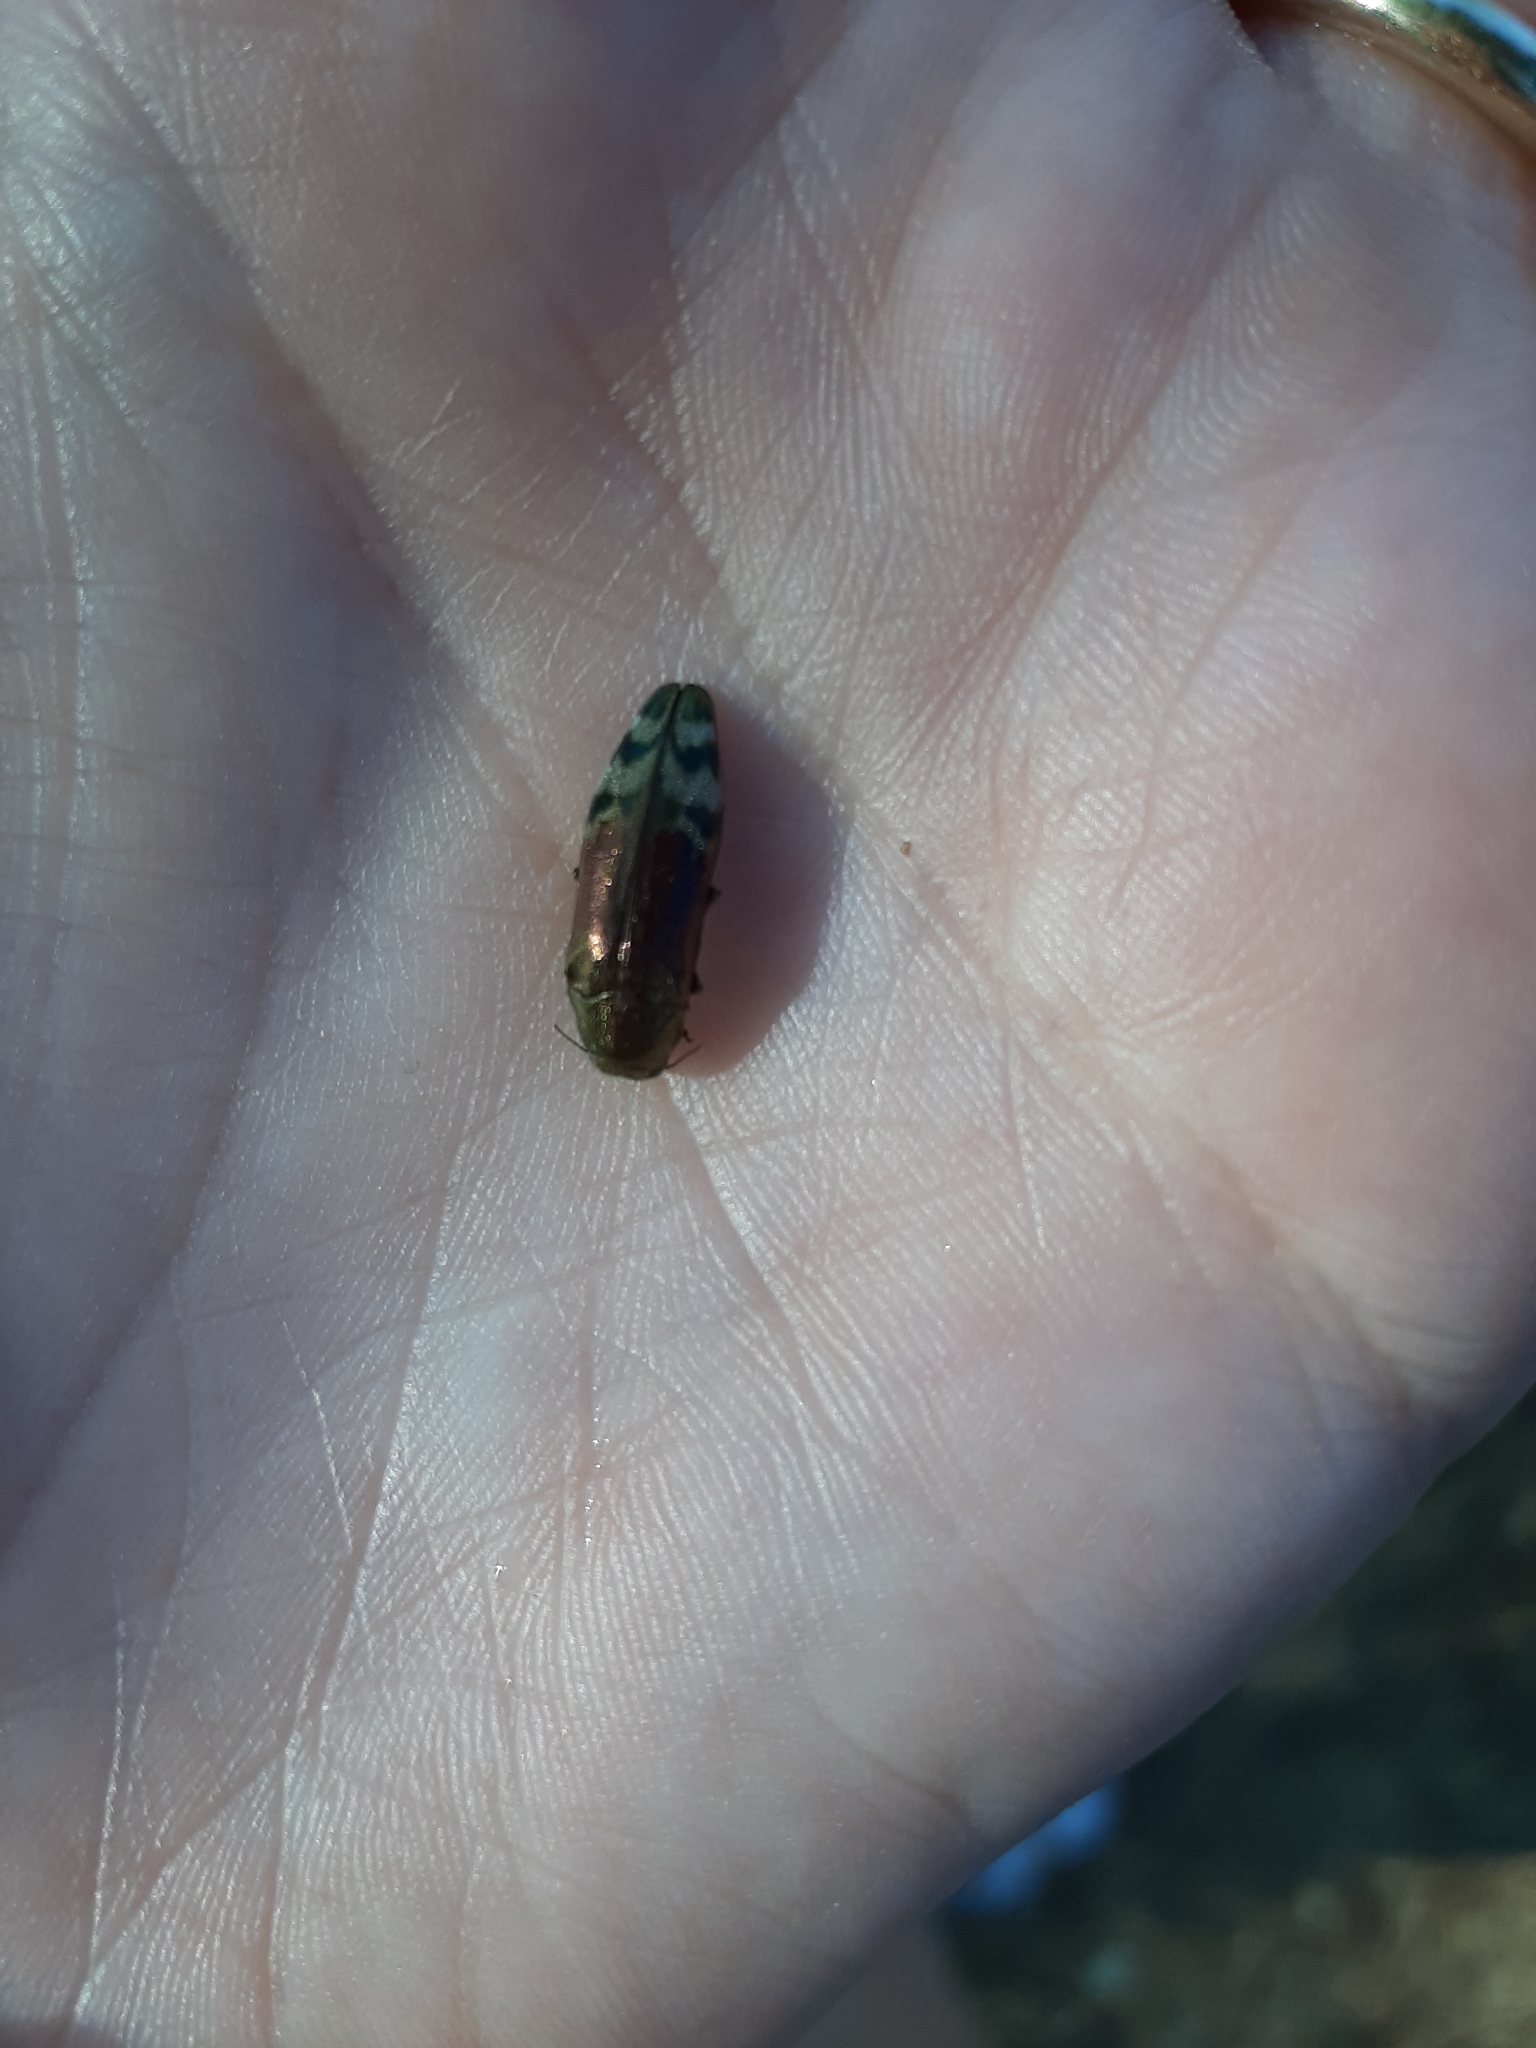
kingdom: Animalia
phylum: Arthropoda
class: Insecta
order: Coleoptera
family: Buprestidae
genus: Coraebus
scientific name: Coraebus fasciatus
